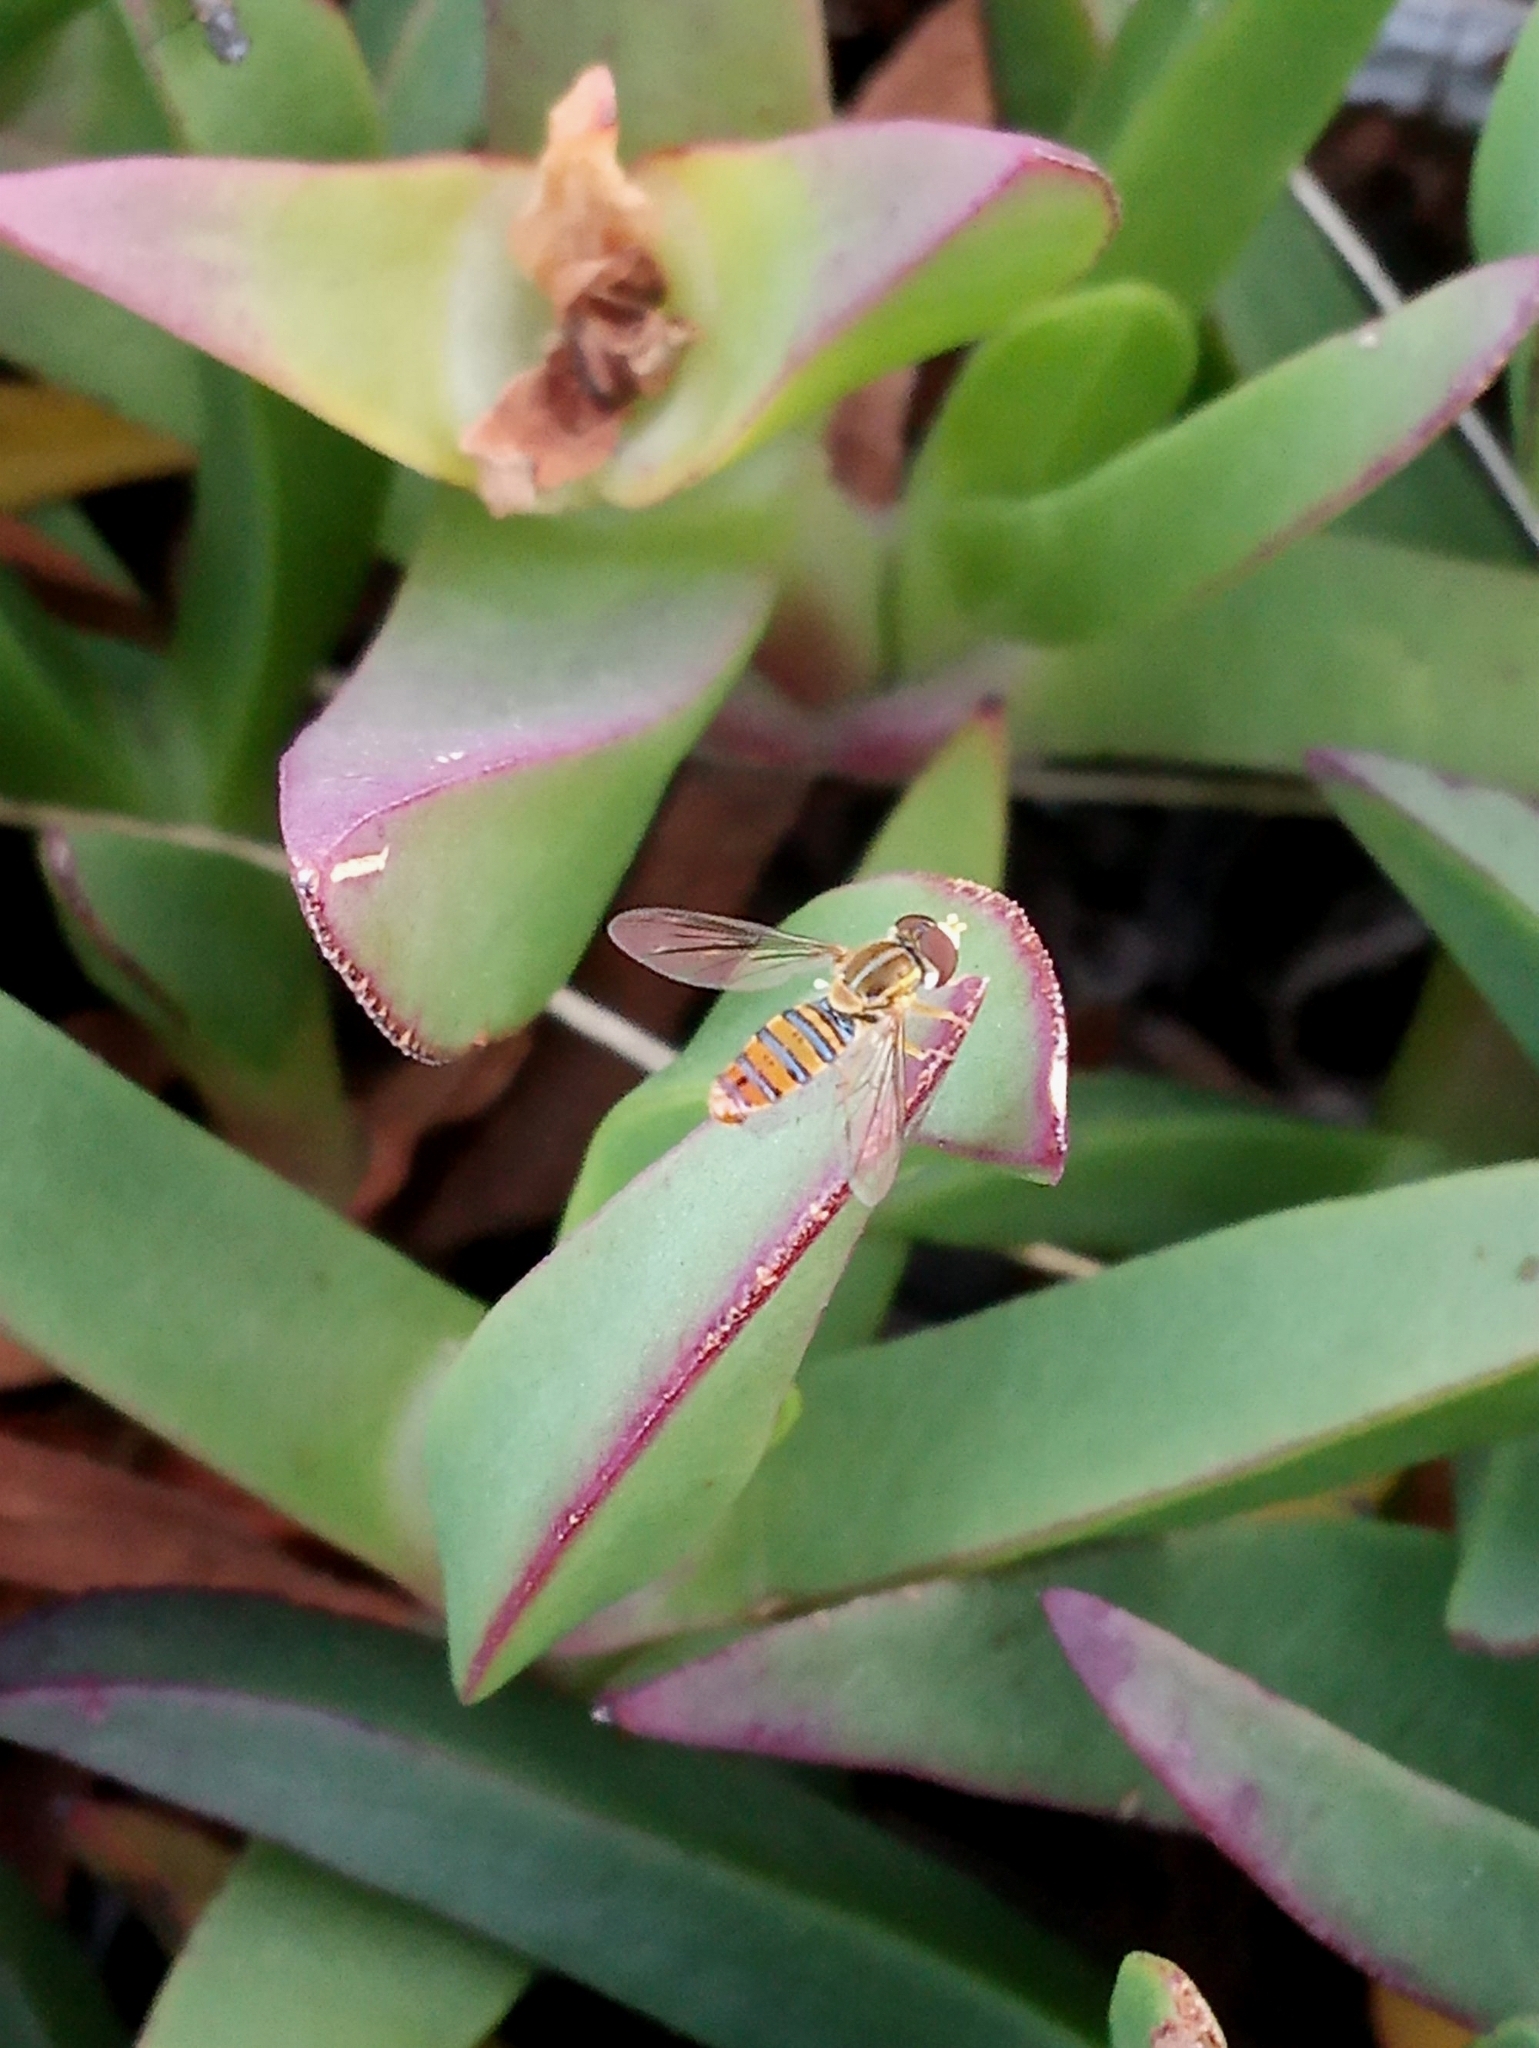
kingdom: Animalia
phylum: Arthropoda
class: Insecta
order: Diptera
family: Syrphidae
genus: Toxomerus
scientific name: Toxomerus
